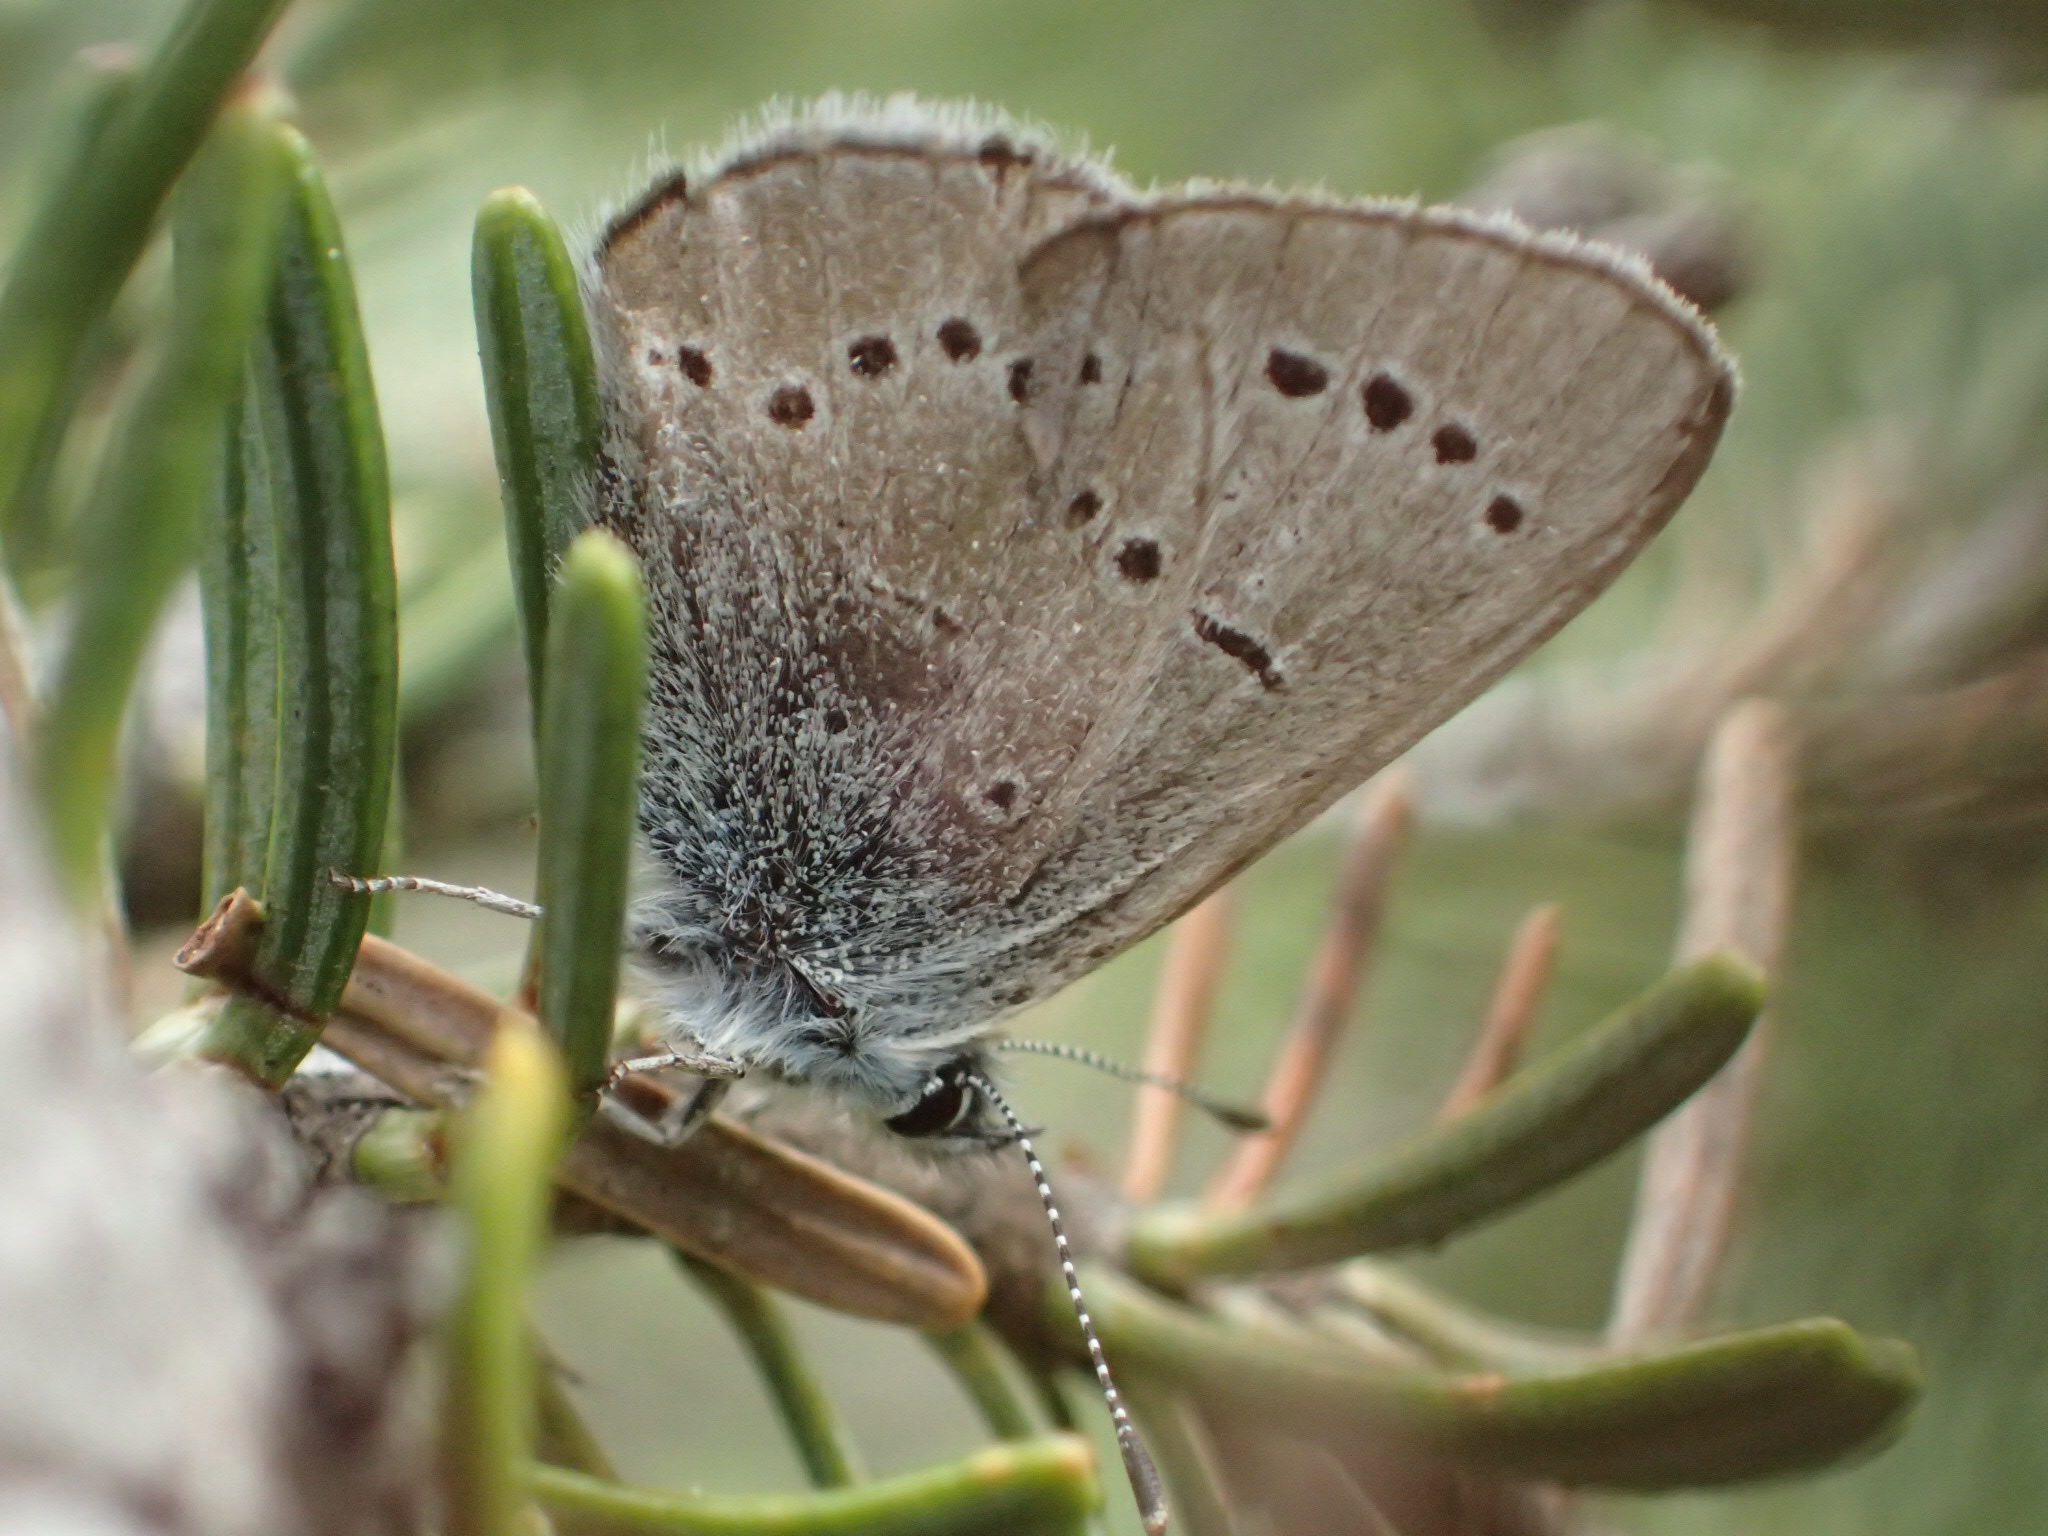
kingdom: Animalia
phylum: Arthropoda
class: Insecta
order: Lepidoptera
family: Lycaenidae
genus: Glaucopsyche
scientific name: Glaucopsyche lygdamus
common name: Silvery blue
